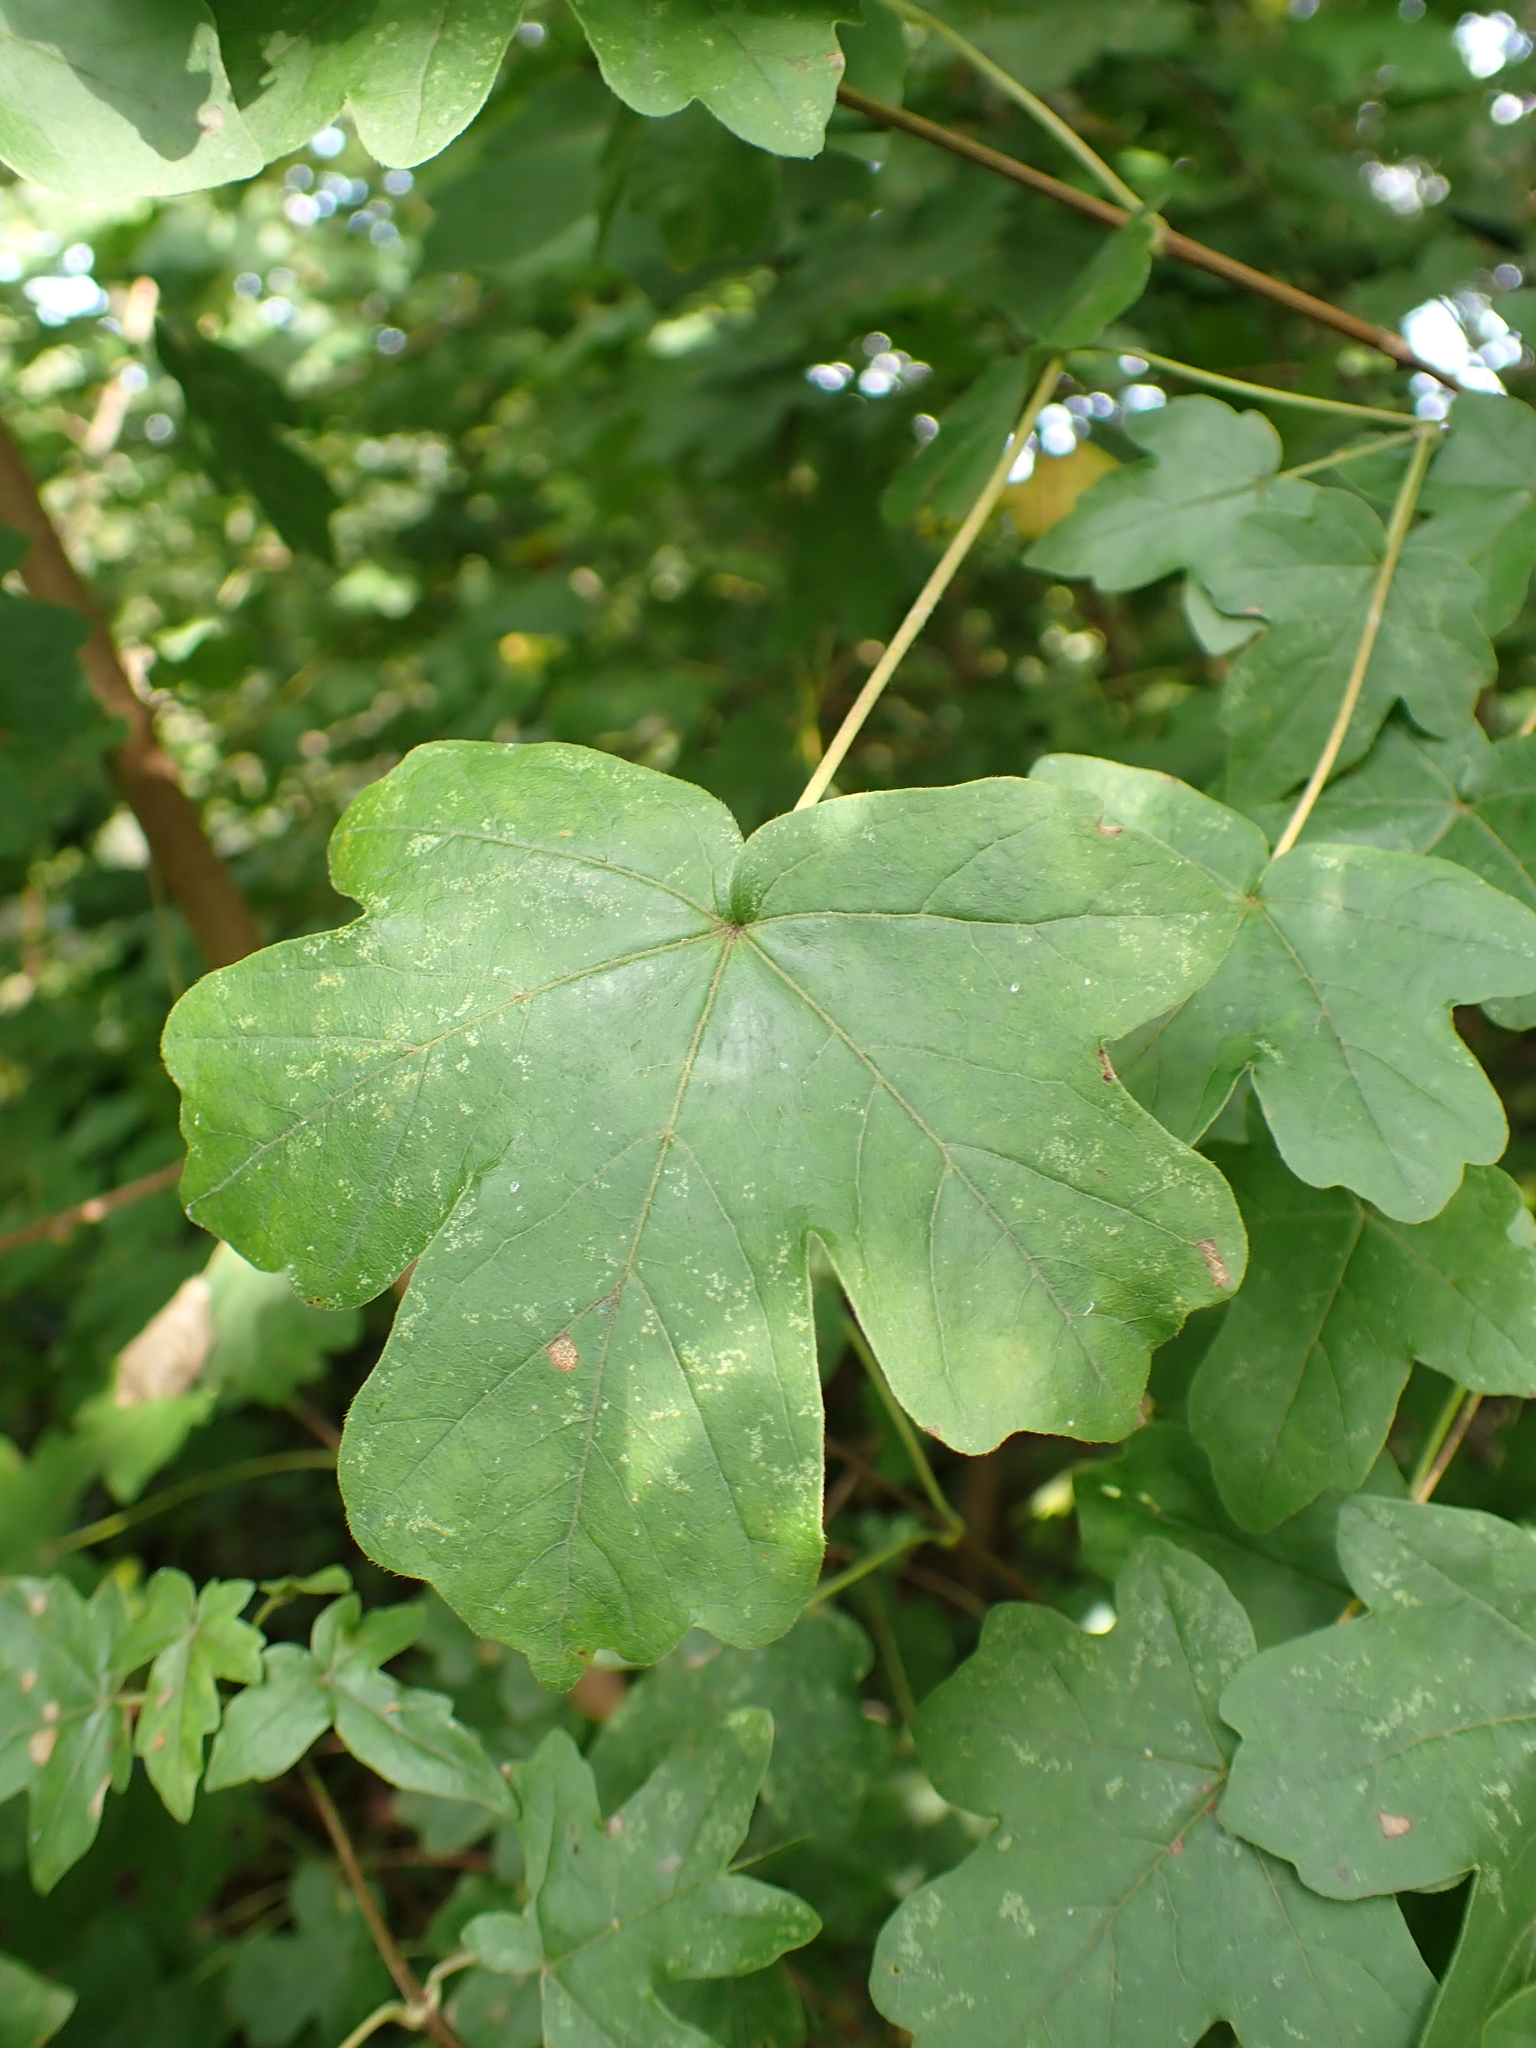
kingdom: Plantae
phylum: Tracheophyta
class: Magnoliopsida
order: Sapindales
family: Sapindaceae
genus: Acer
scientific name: Acer campestre
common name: Field maple
